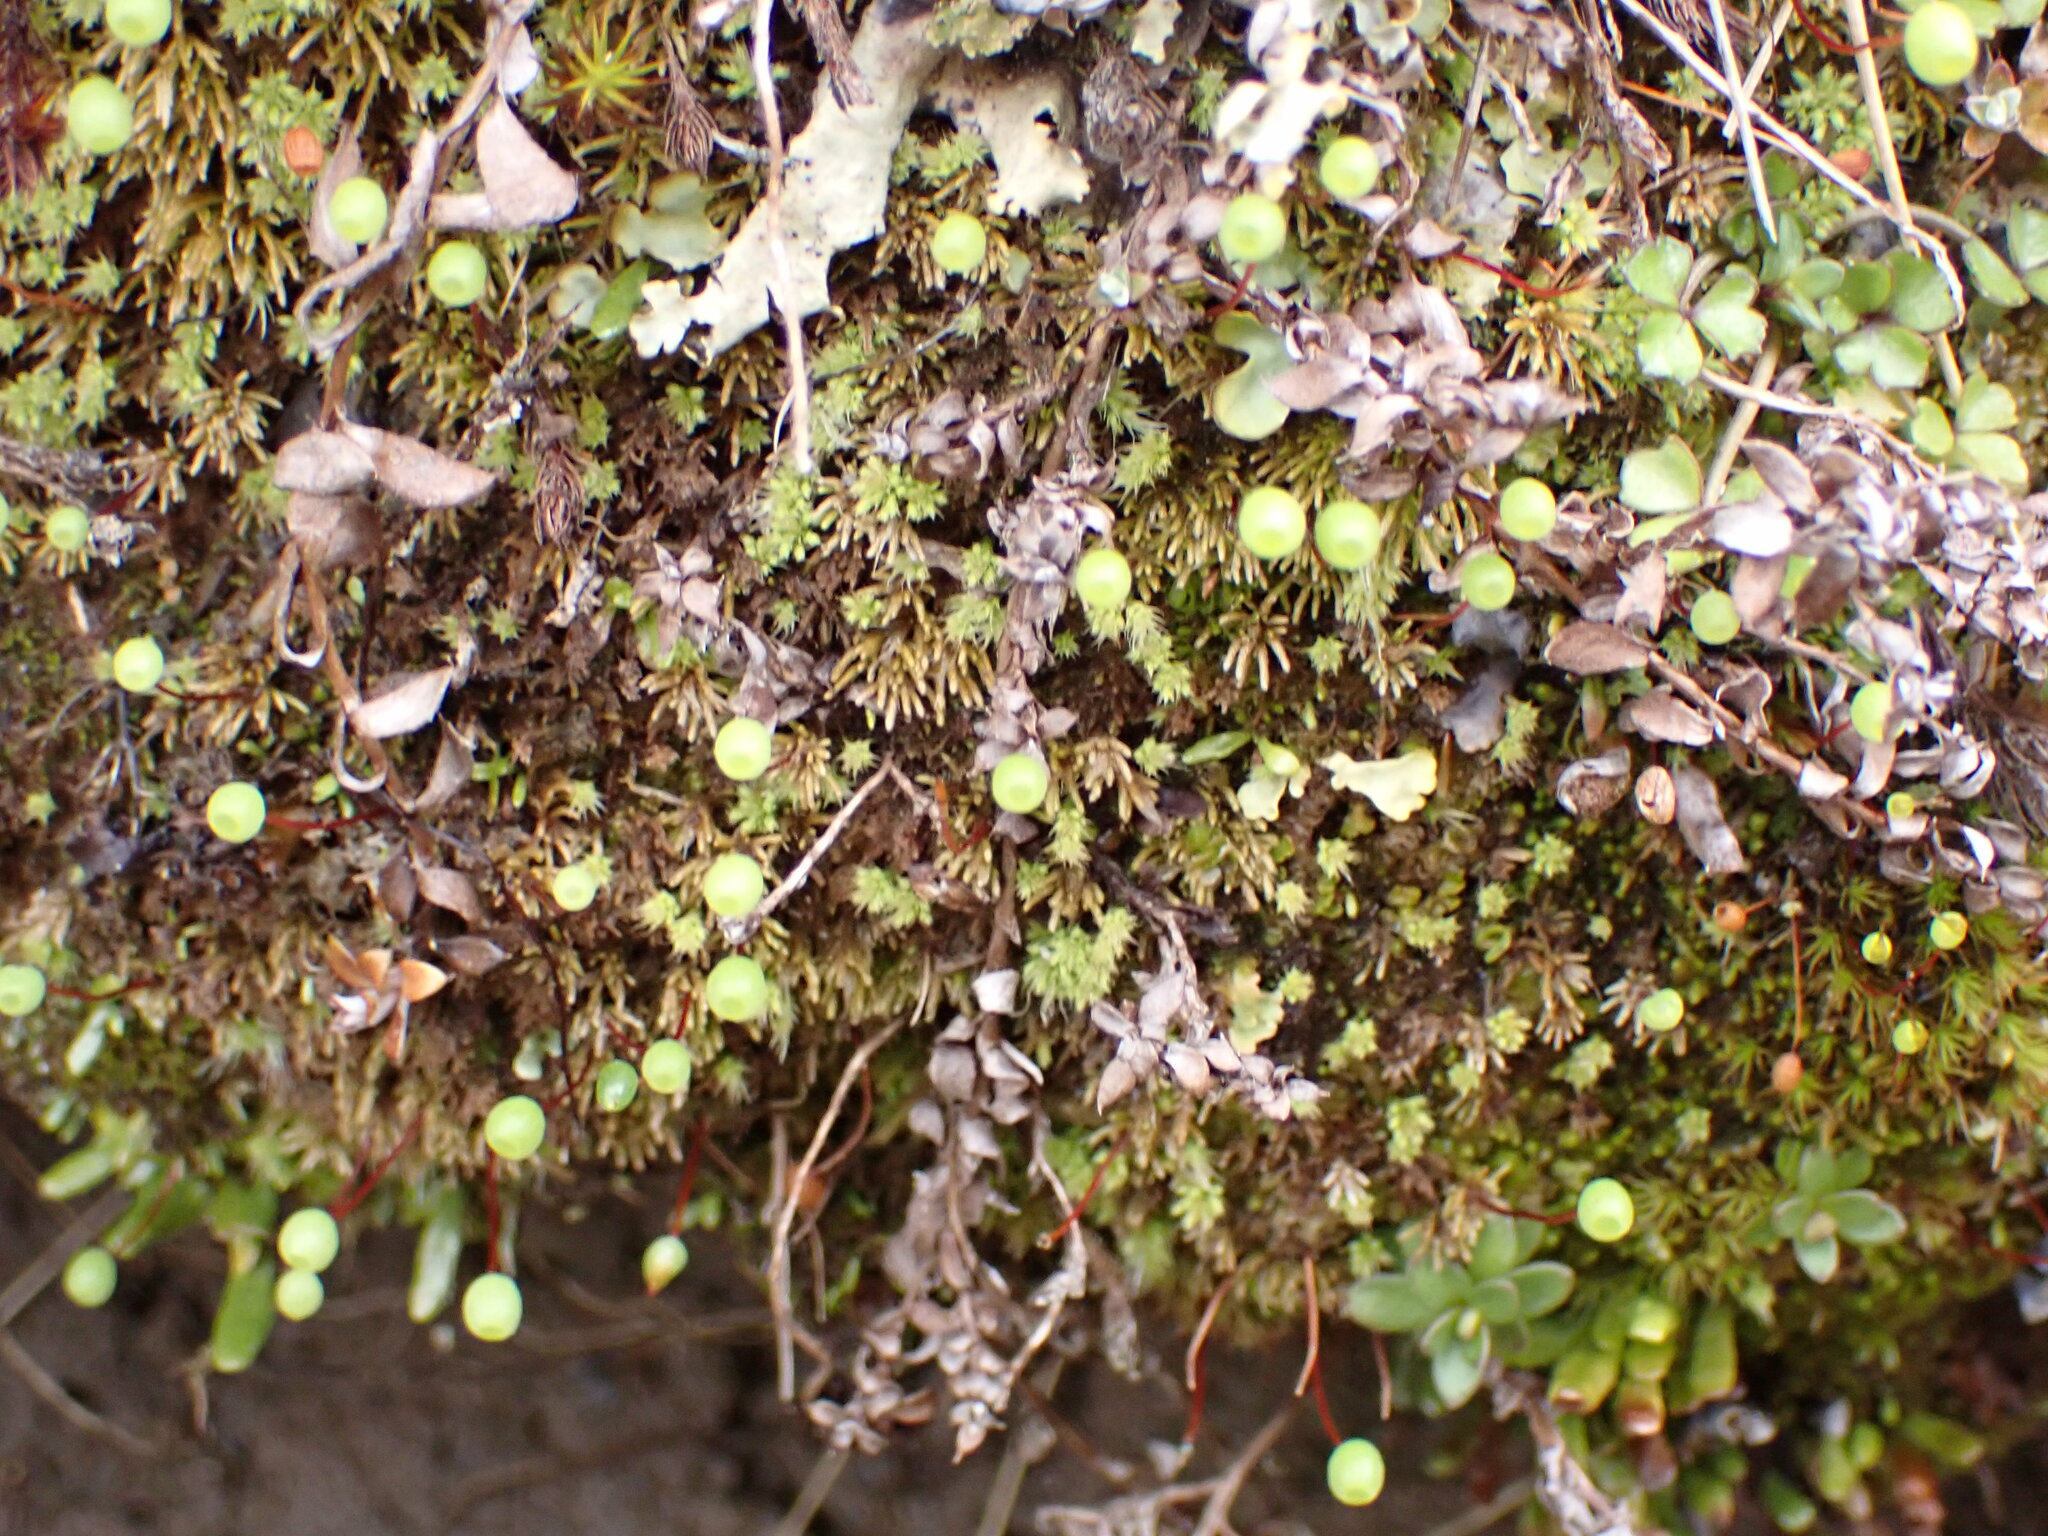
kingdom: Plantae
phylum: Bryophyta
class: Bryopsida
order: Bartramiales
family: Bartramiaceae
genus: Philonotis
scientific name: Philonotis scabrifolia
